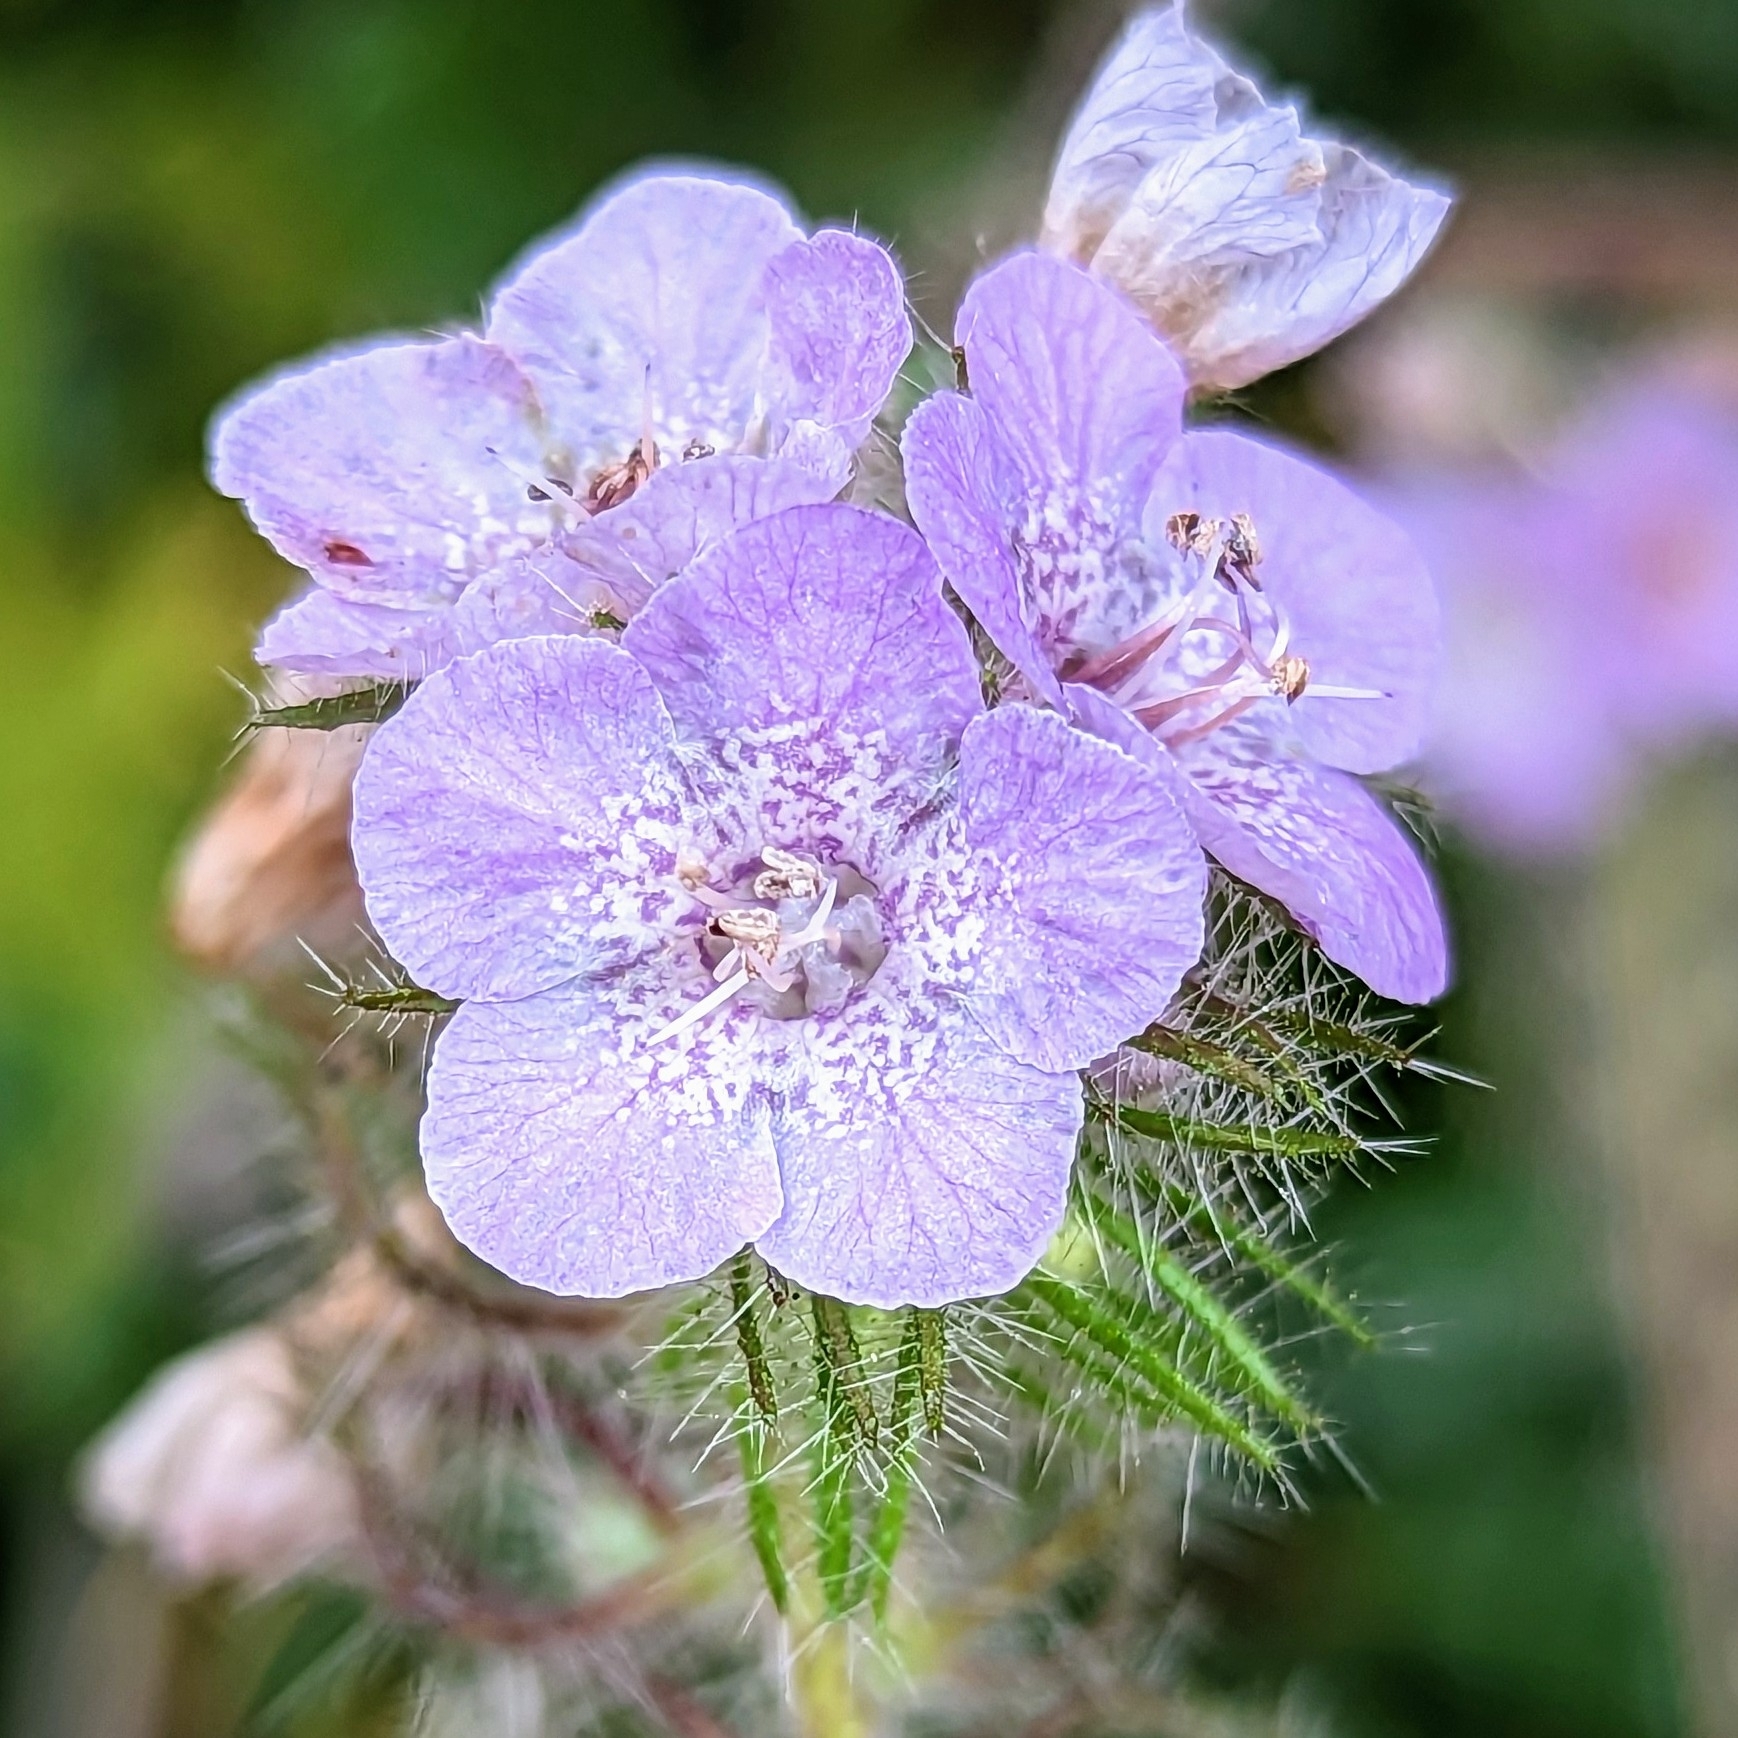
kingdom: Plantae
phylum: Tracheophyta
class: Magnoliopsida
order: Boraginales
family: Hydrophyllaceae
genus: Phacelia
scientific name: Phacelia cicutaria
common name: Caterpillar phacelia
